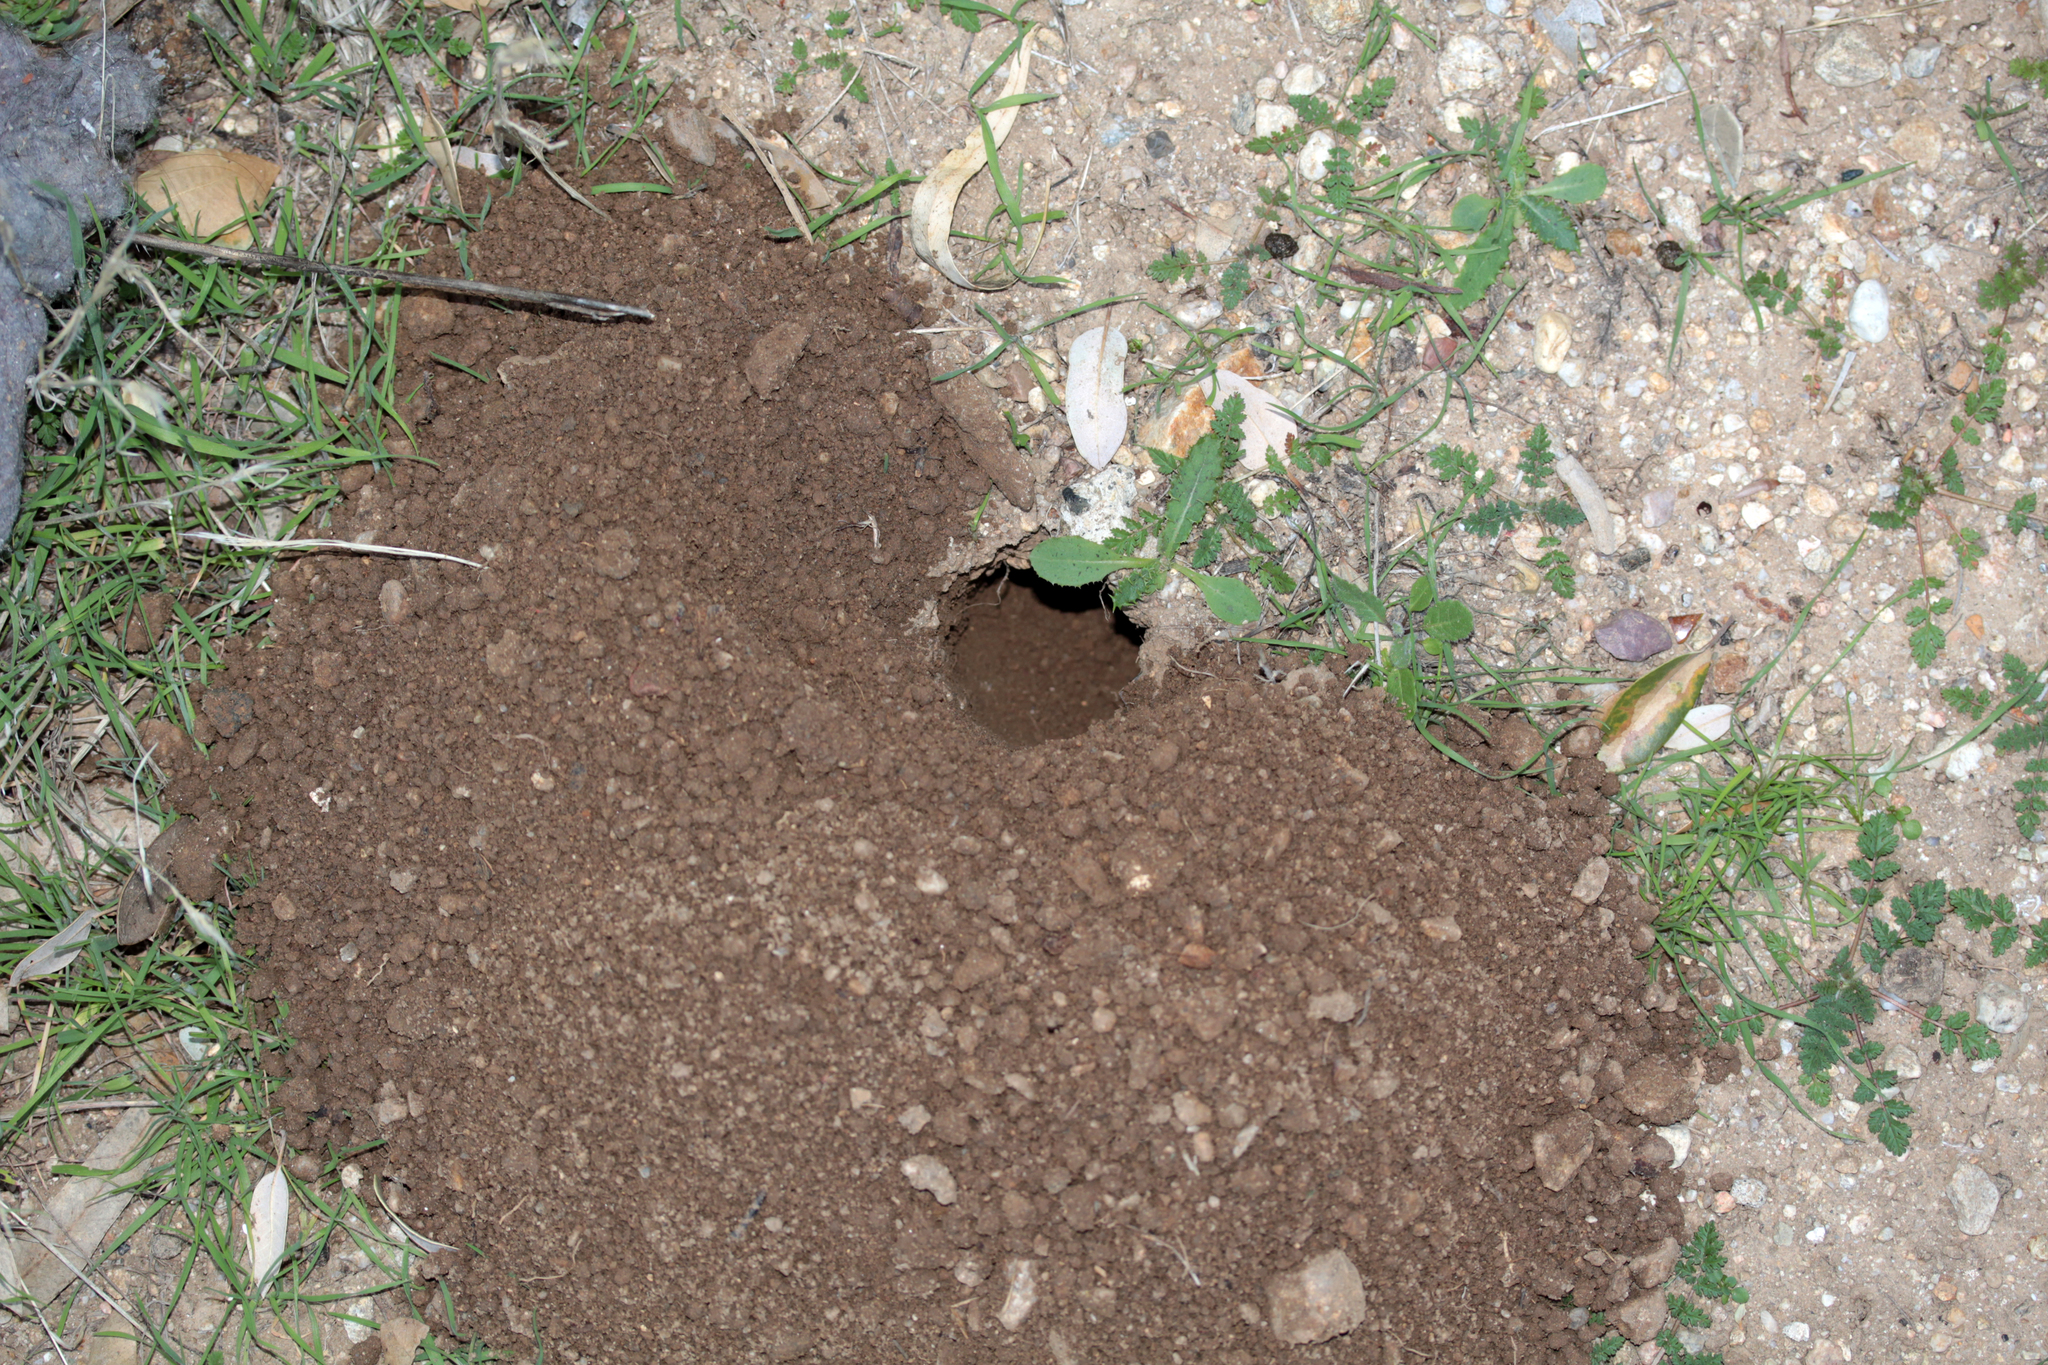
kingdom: Animalia
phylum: Chordata
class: Mammalia
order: Rodentia
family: Geomyidae
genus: Thomomys
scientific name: Thomomys bottae
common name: Botta's pocket gopher
